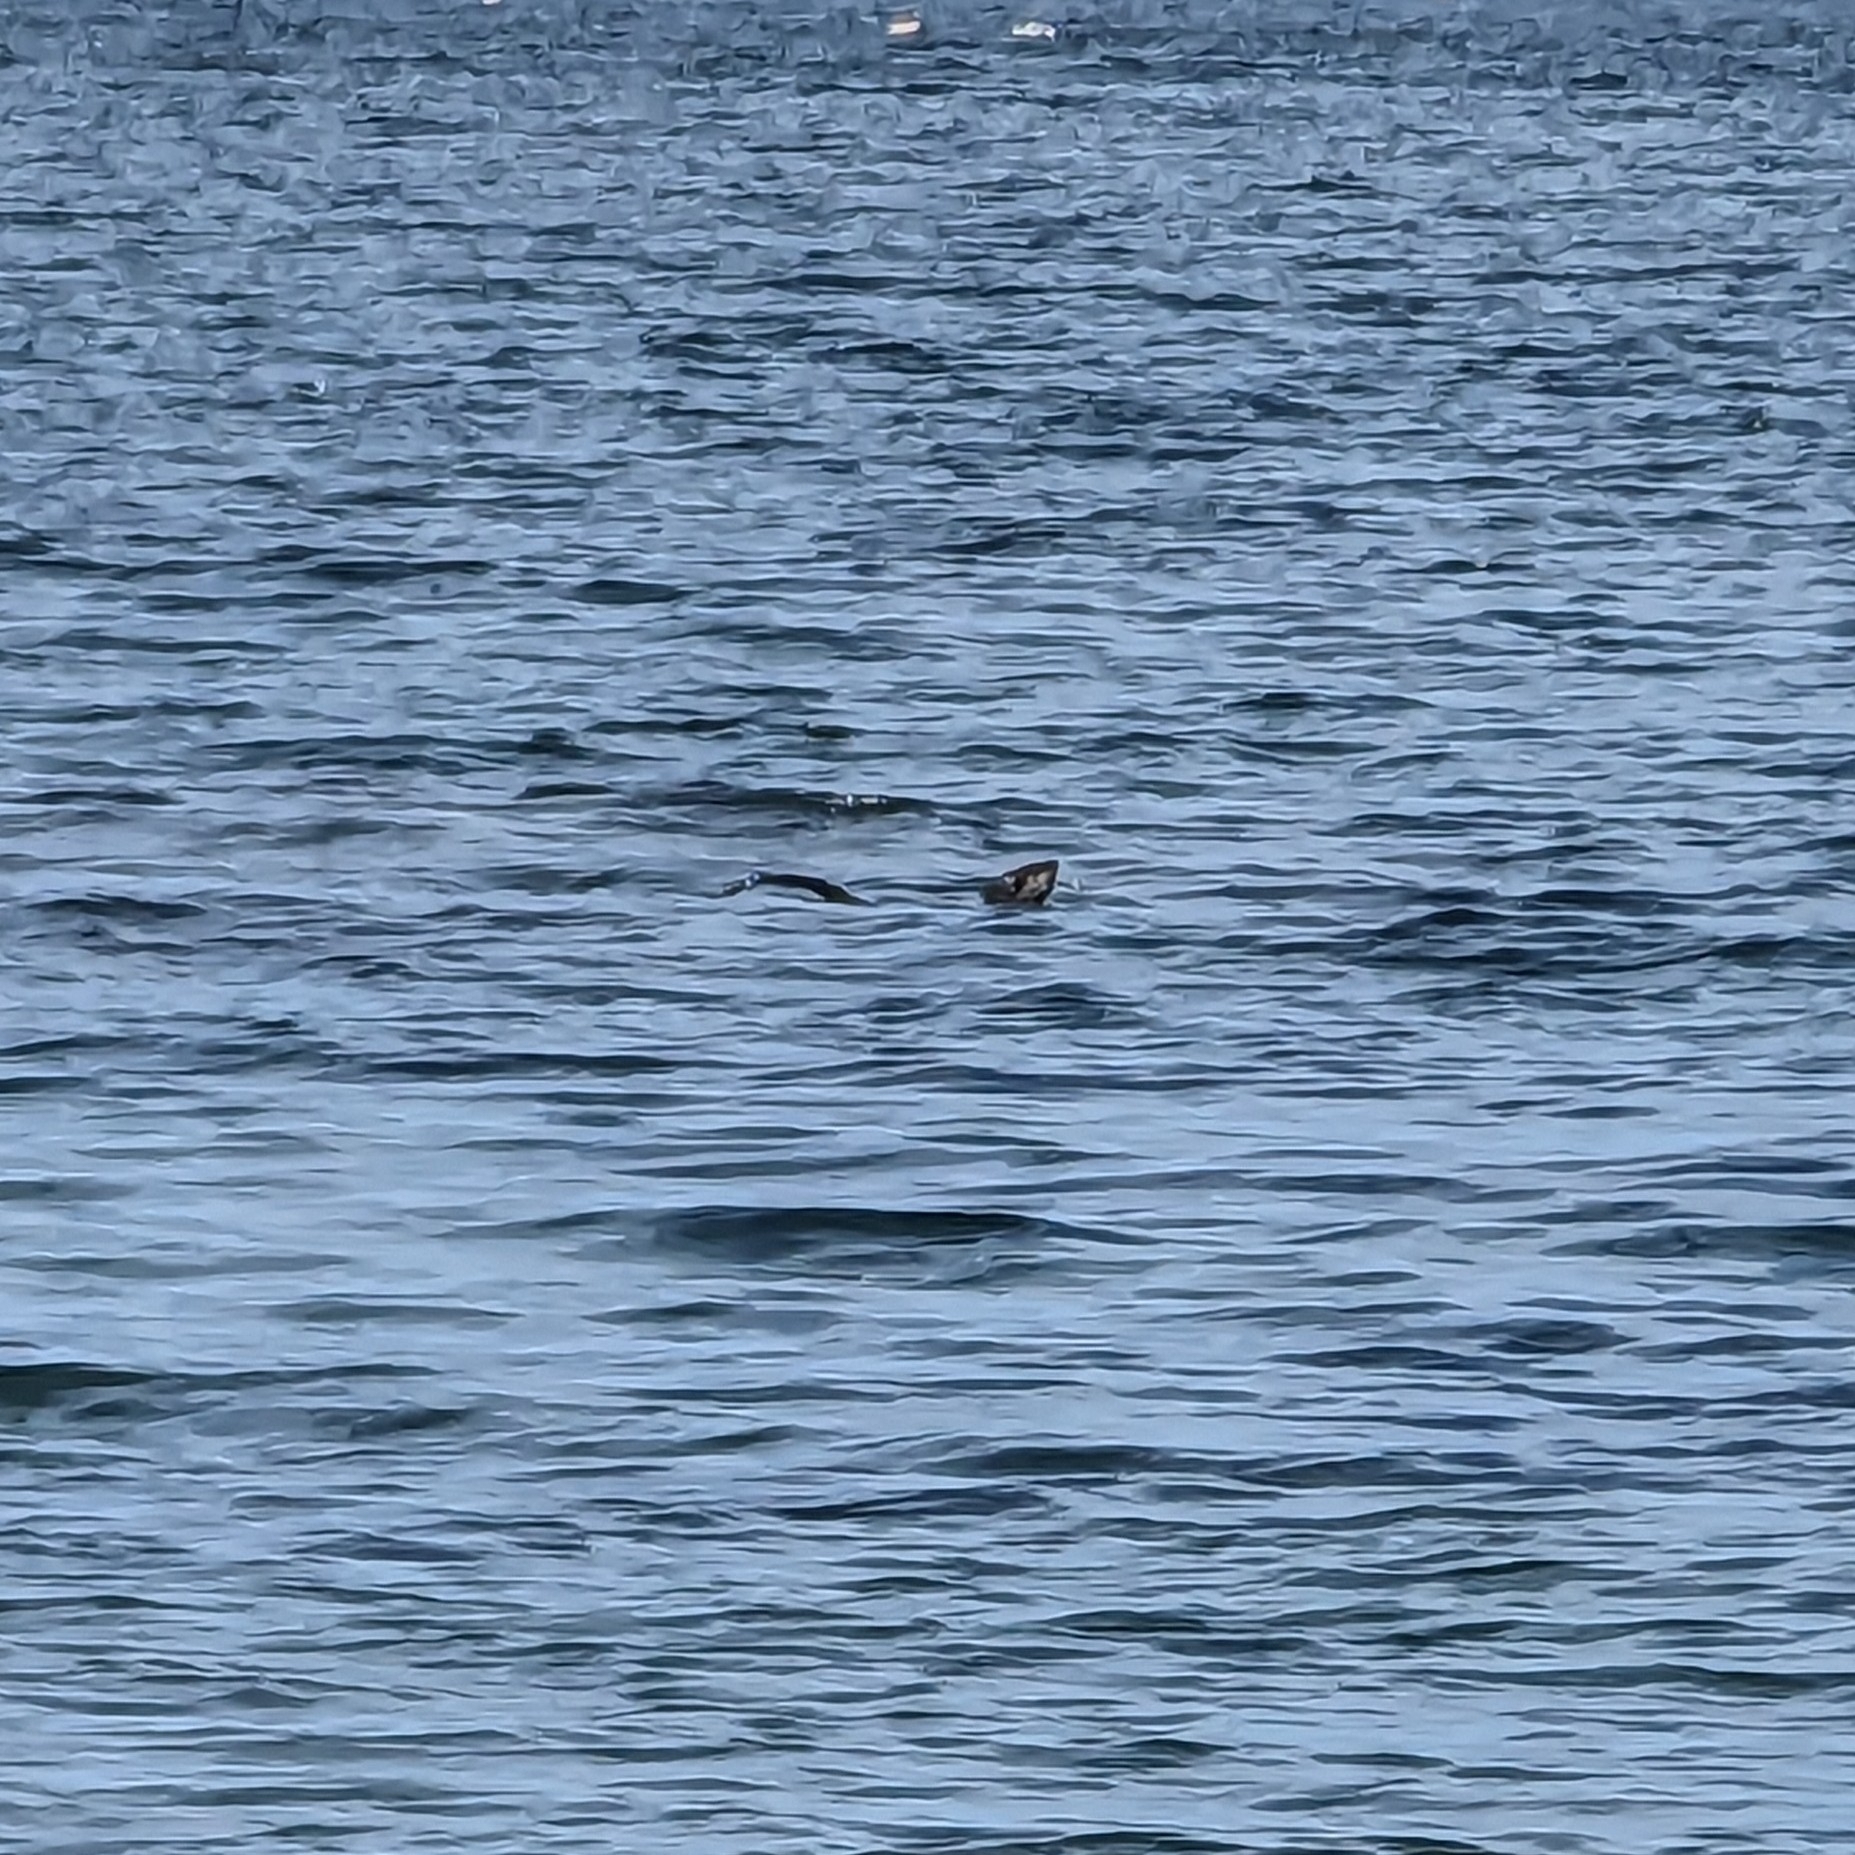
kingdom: Animalia
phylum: Chordata
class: Mammalia
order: Carnivora
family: Mustelidae
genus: Lontra
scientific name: Lontra canadensis
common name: North american river otter
